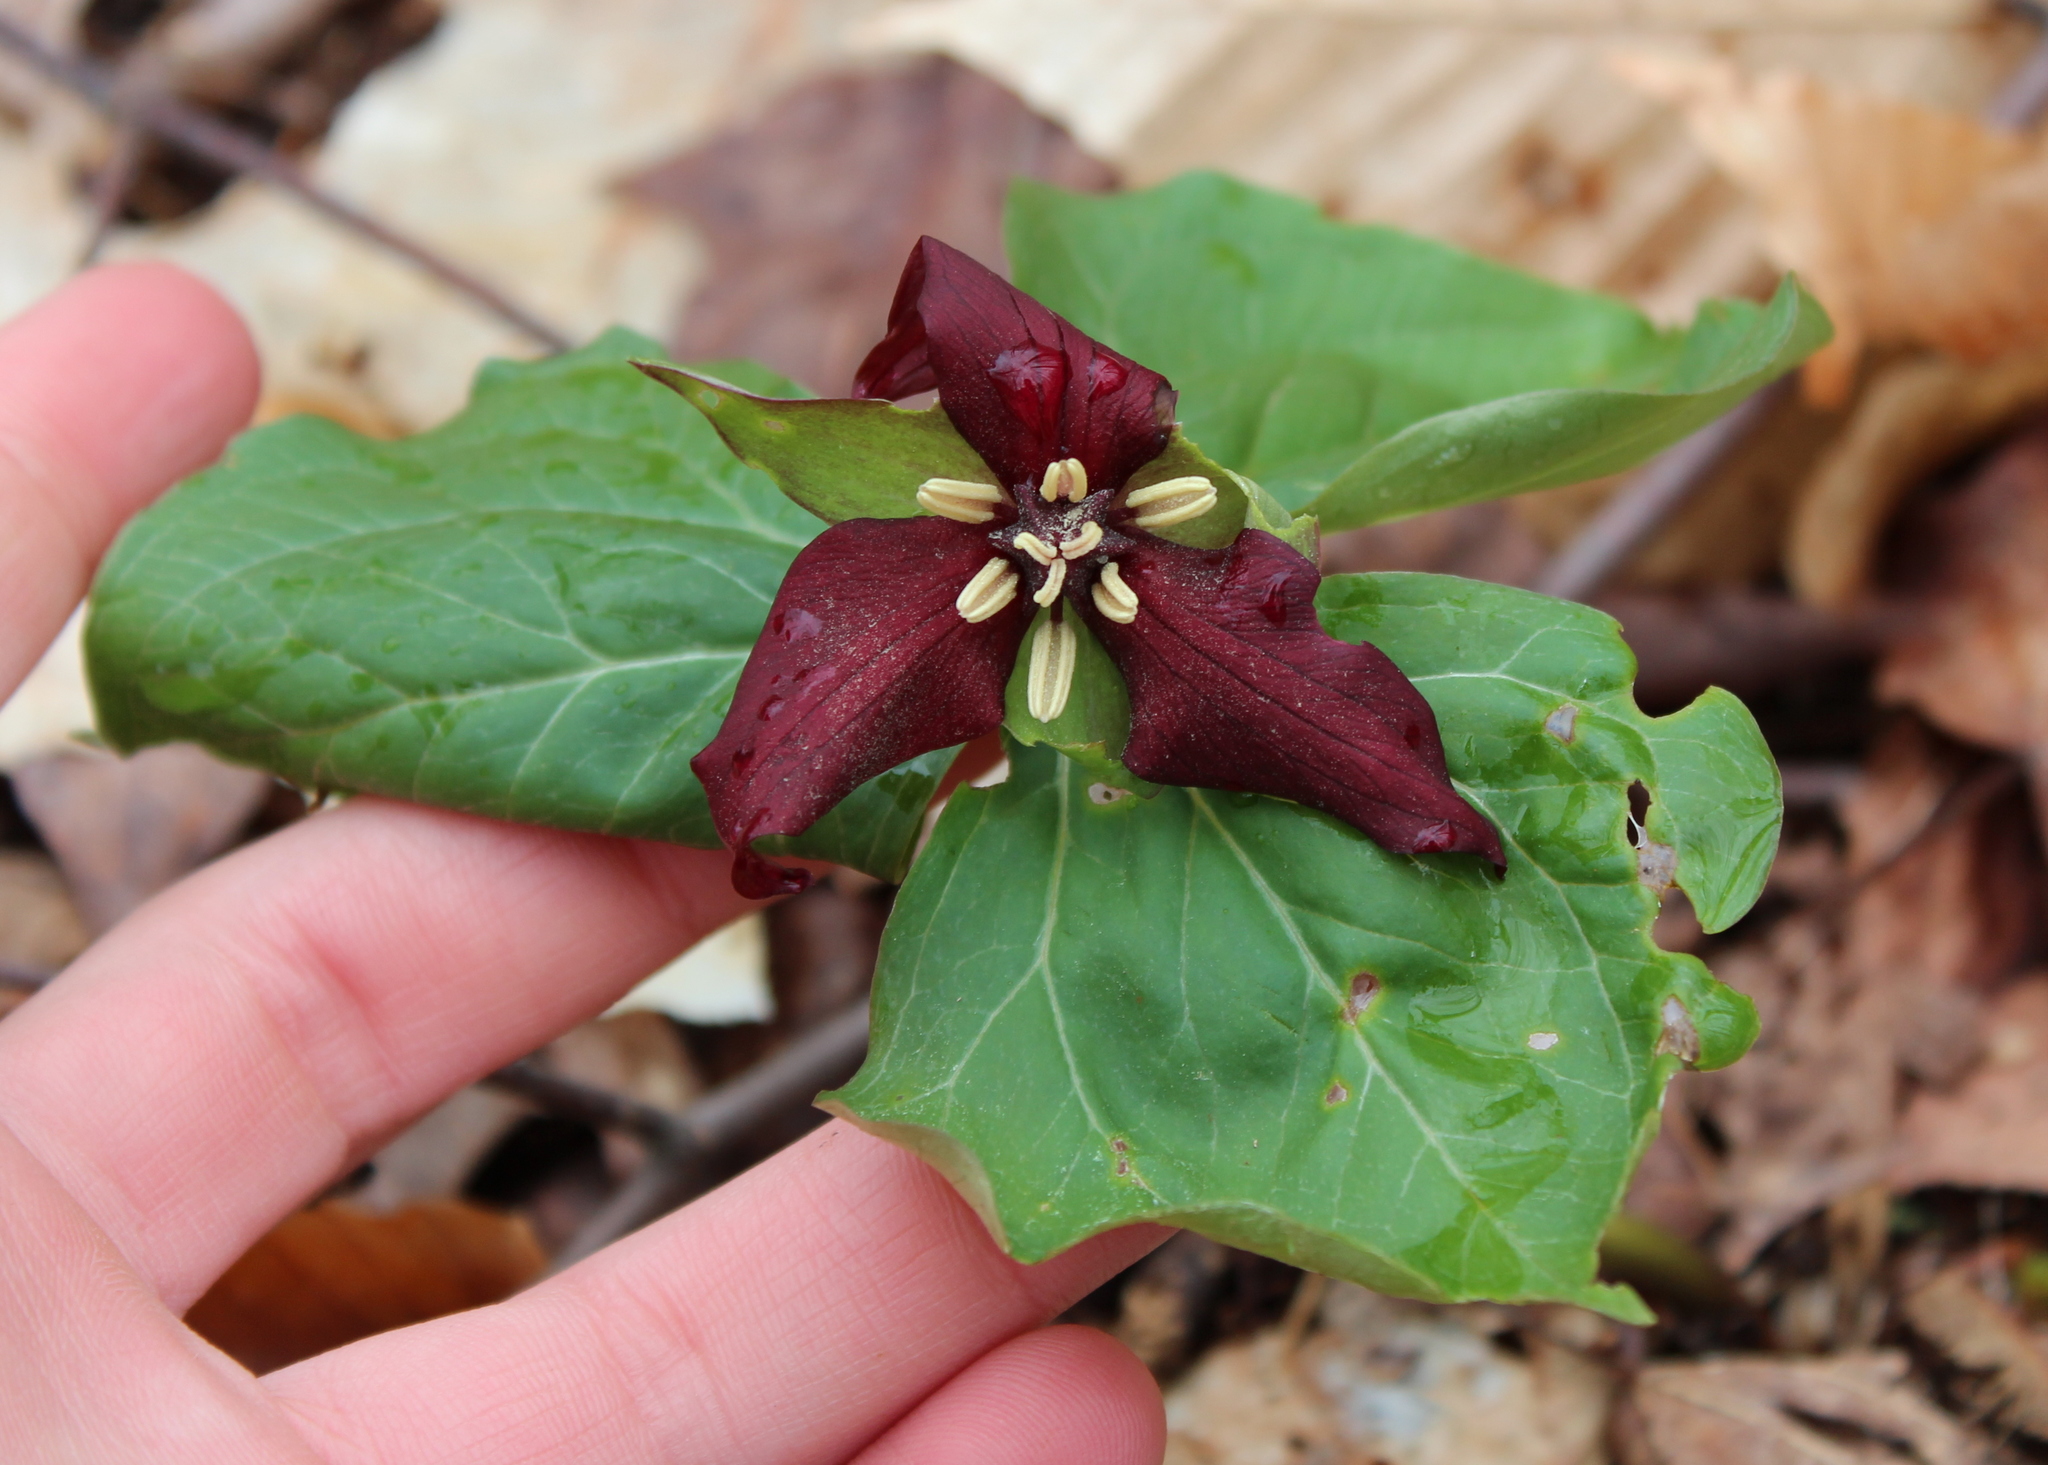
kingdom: Plantae
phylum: Tracheophyta
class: Liliopsida
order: Liliales
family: Melanthiaceae
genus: Trillium
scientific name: Trillium erectum
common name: Purple trillium
